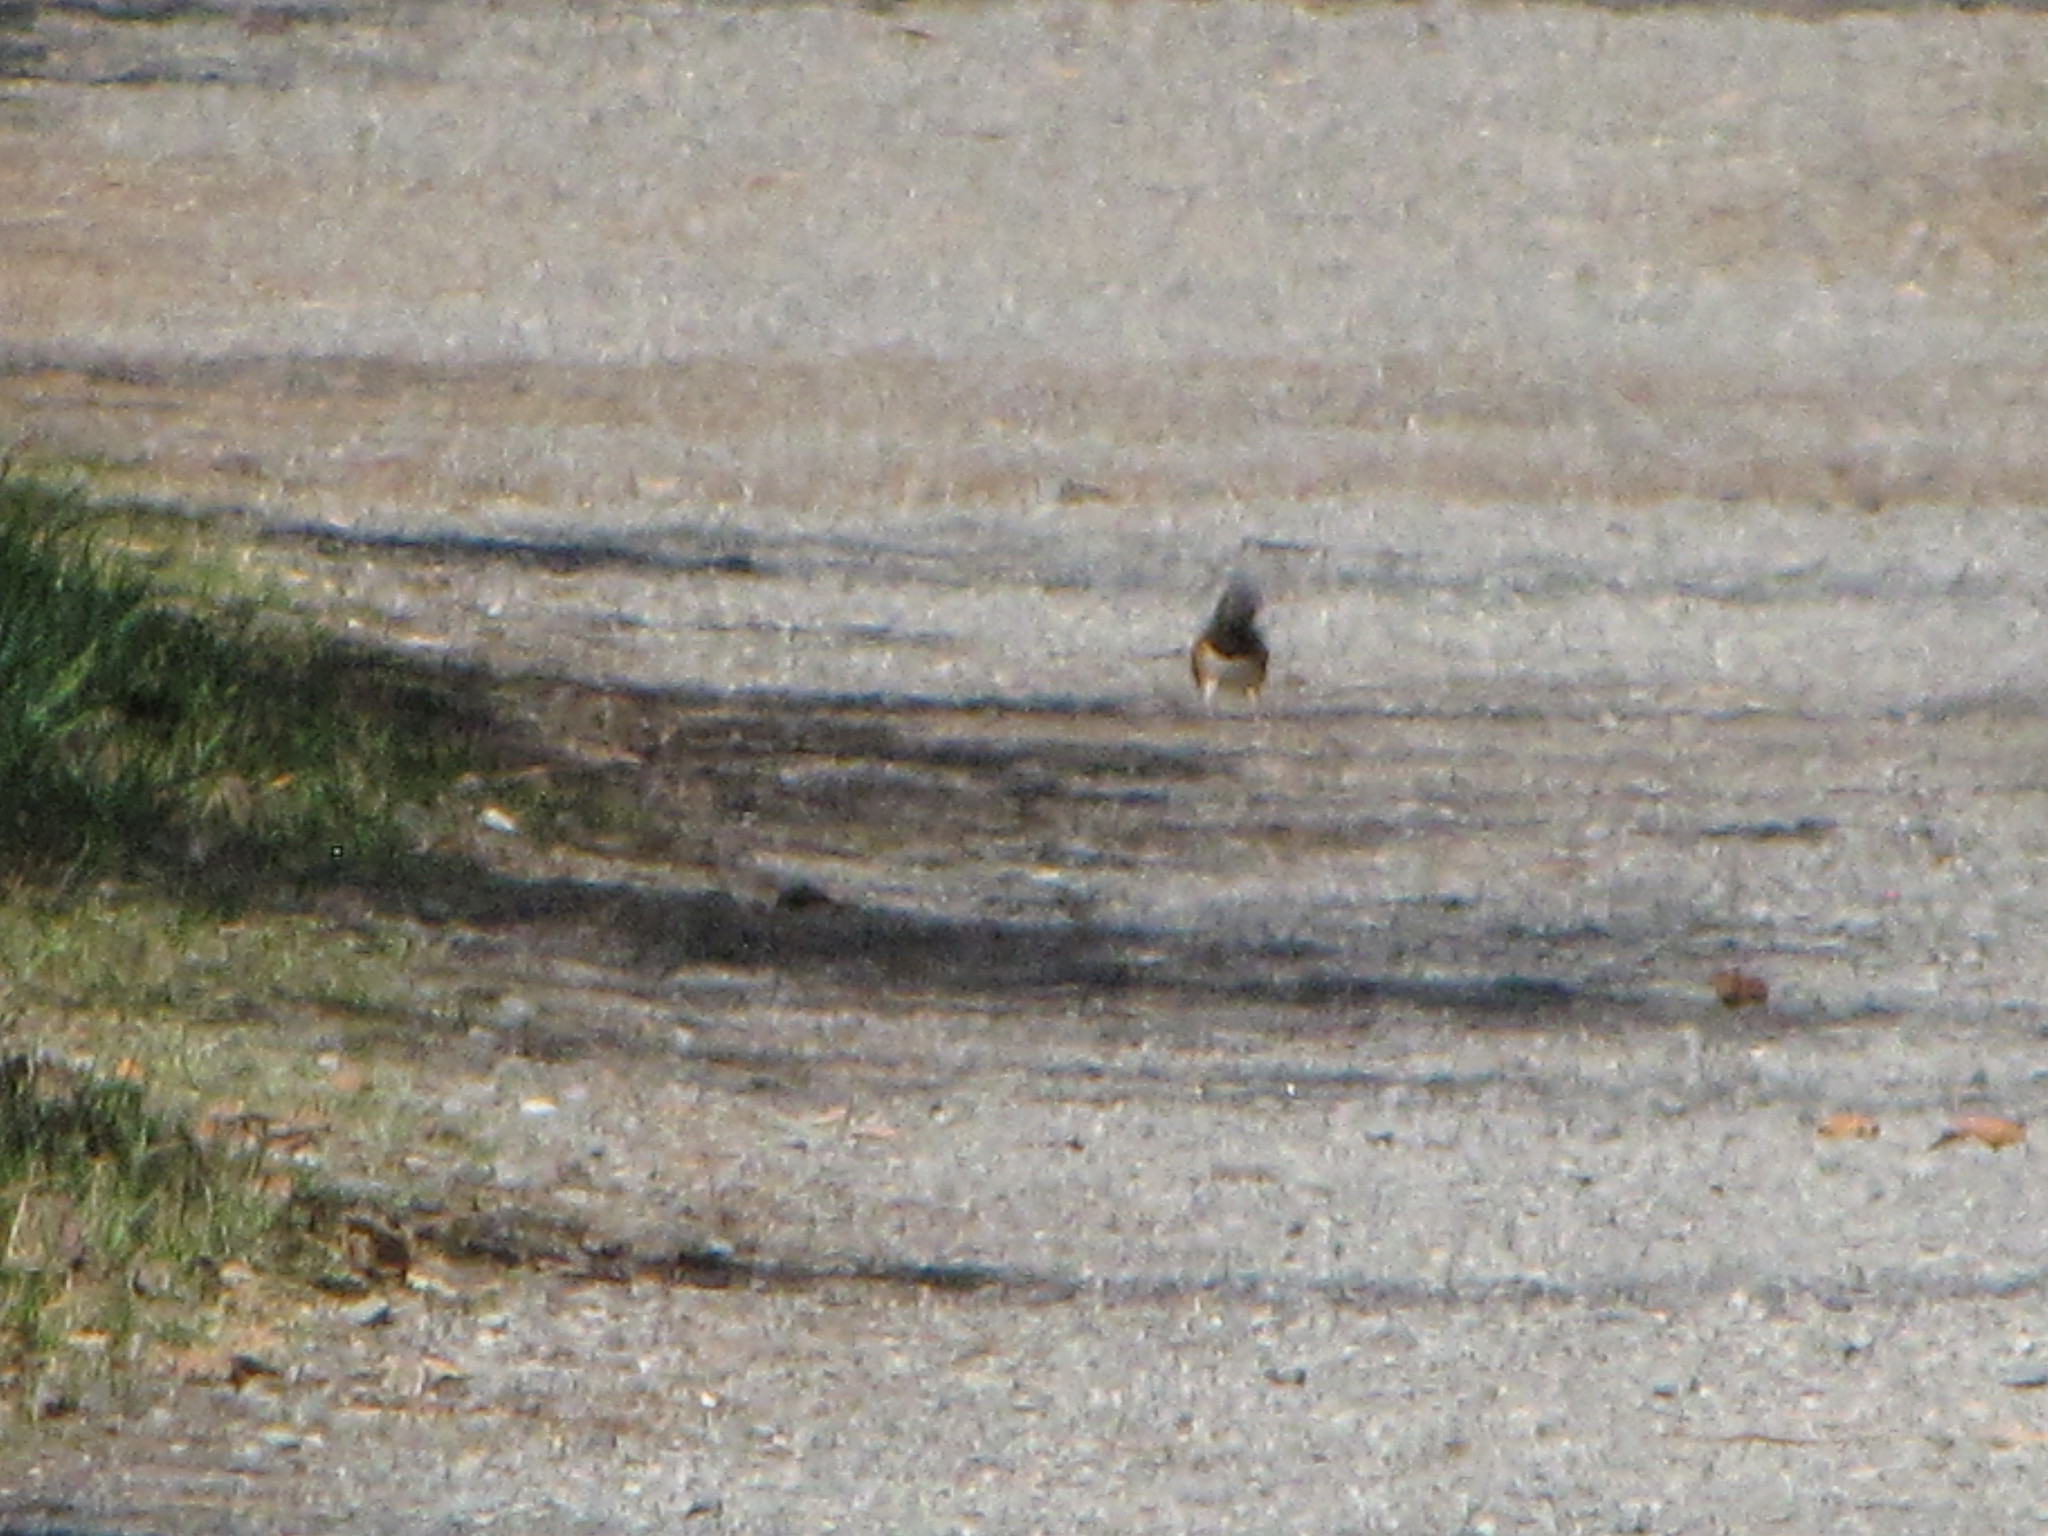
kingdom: Animalia
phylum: Chordata
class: Aves
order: Passeriformes
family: Passerellidae
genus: Pipilo
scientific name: Pipilo maculatus
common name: Spotted towhee
